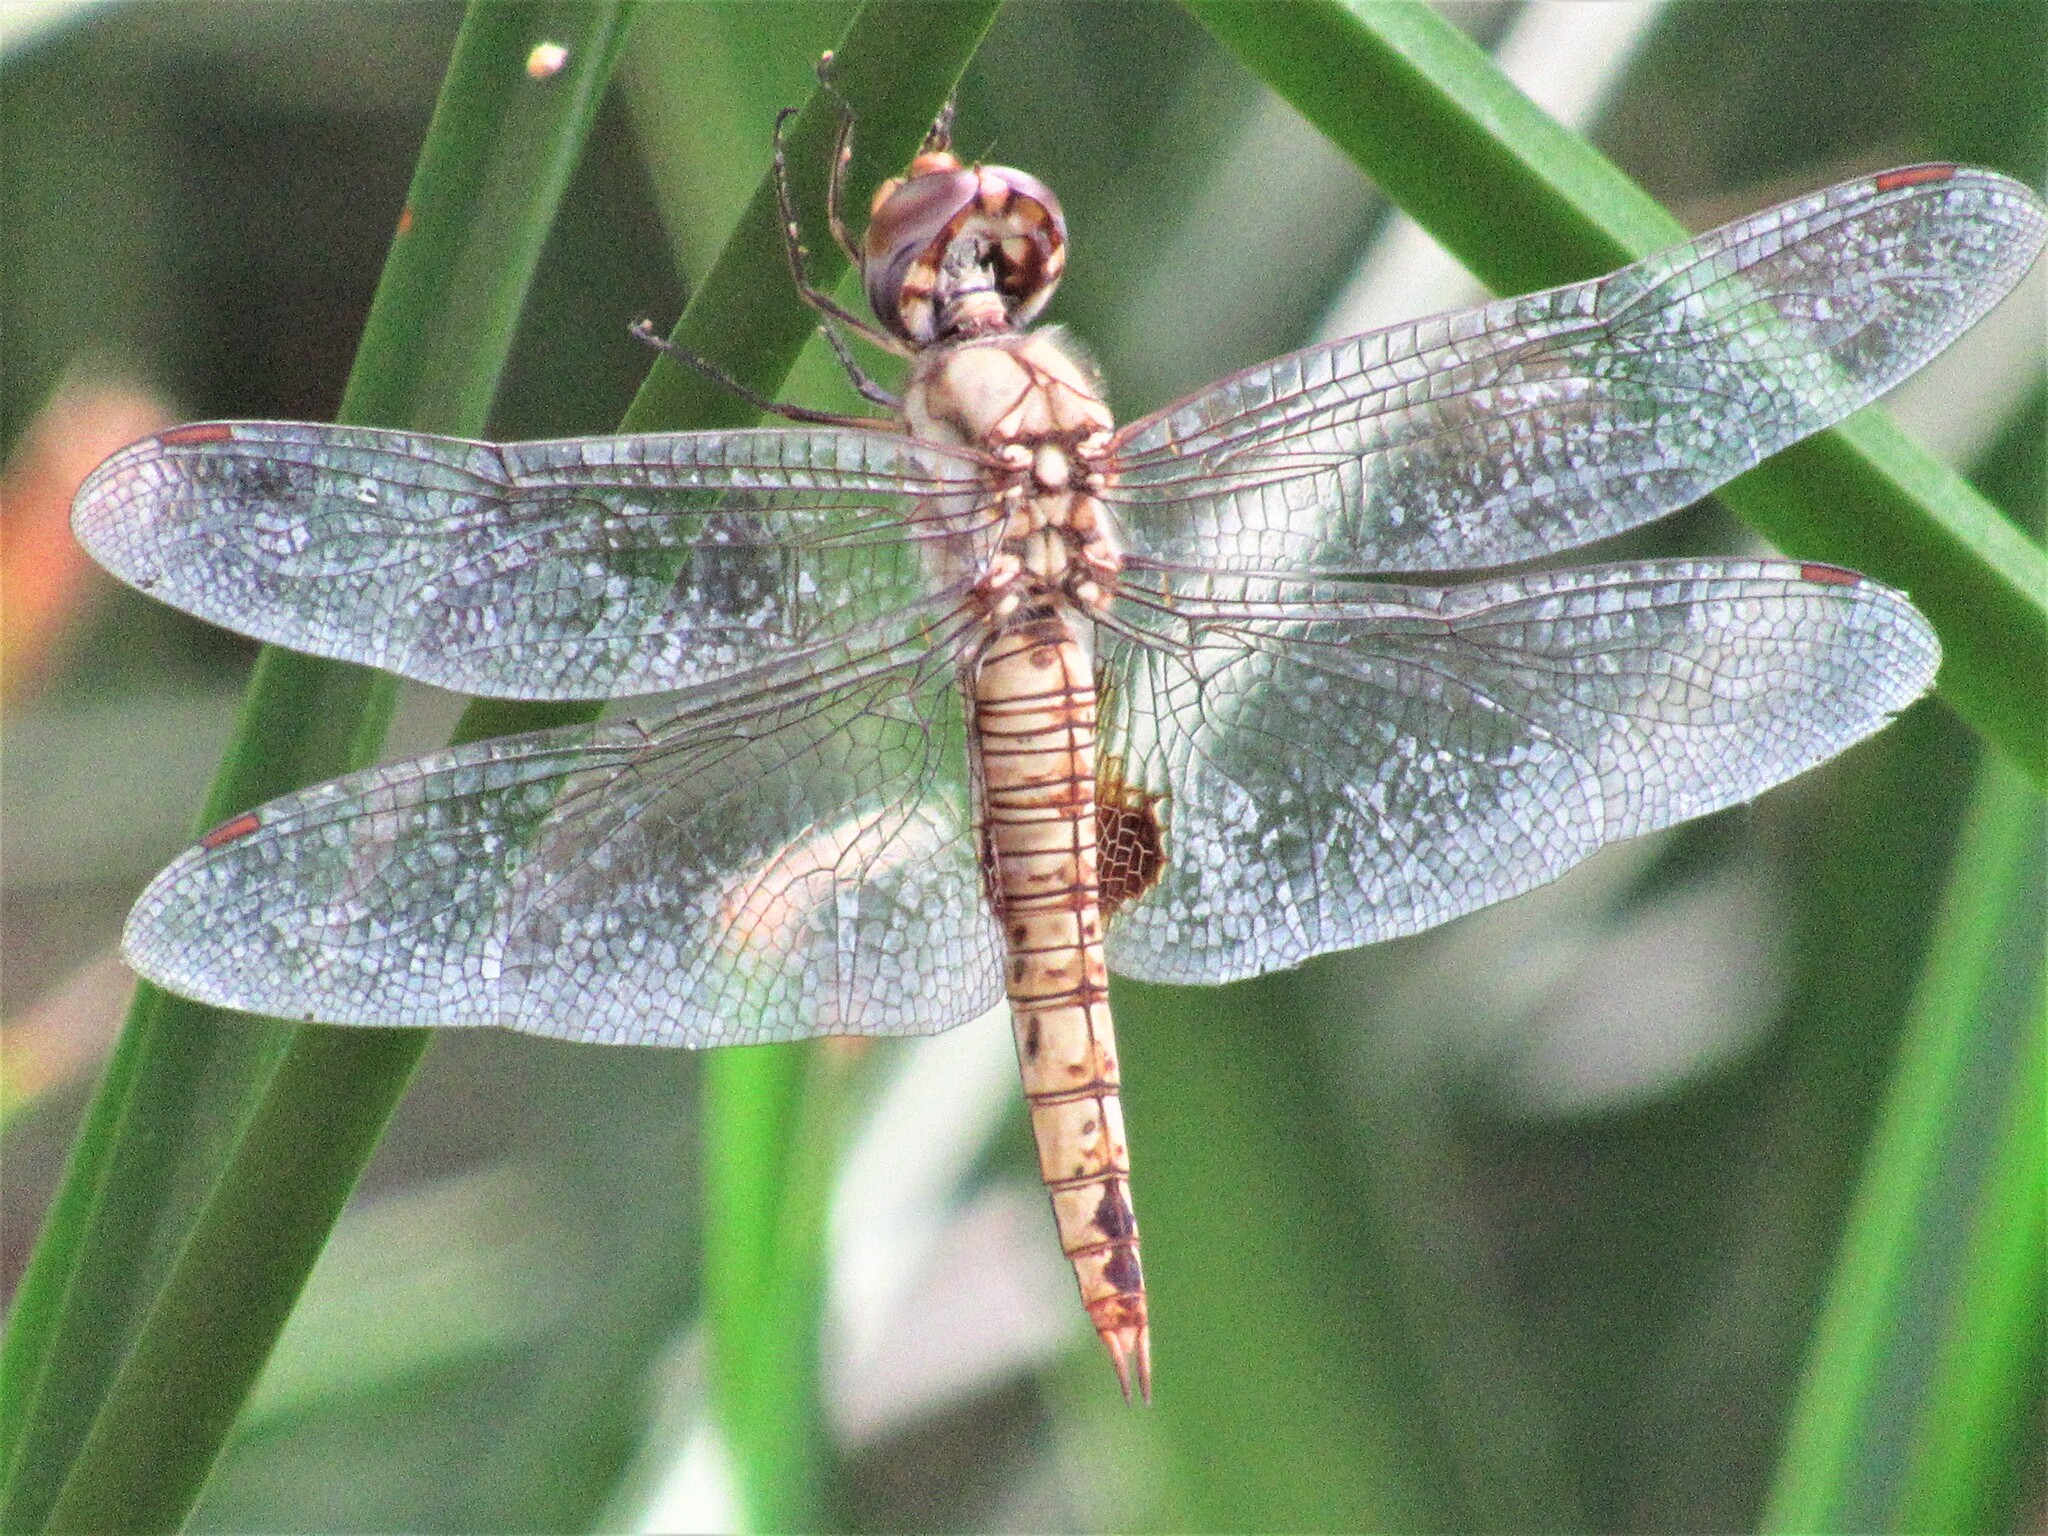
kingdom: Animalia
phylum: Arthropoda
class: Insecta
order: Odonata
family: Libellulidae
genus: Pantala
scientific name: Pantala hymenaea
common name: Spot-winged glider
